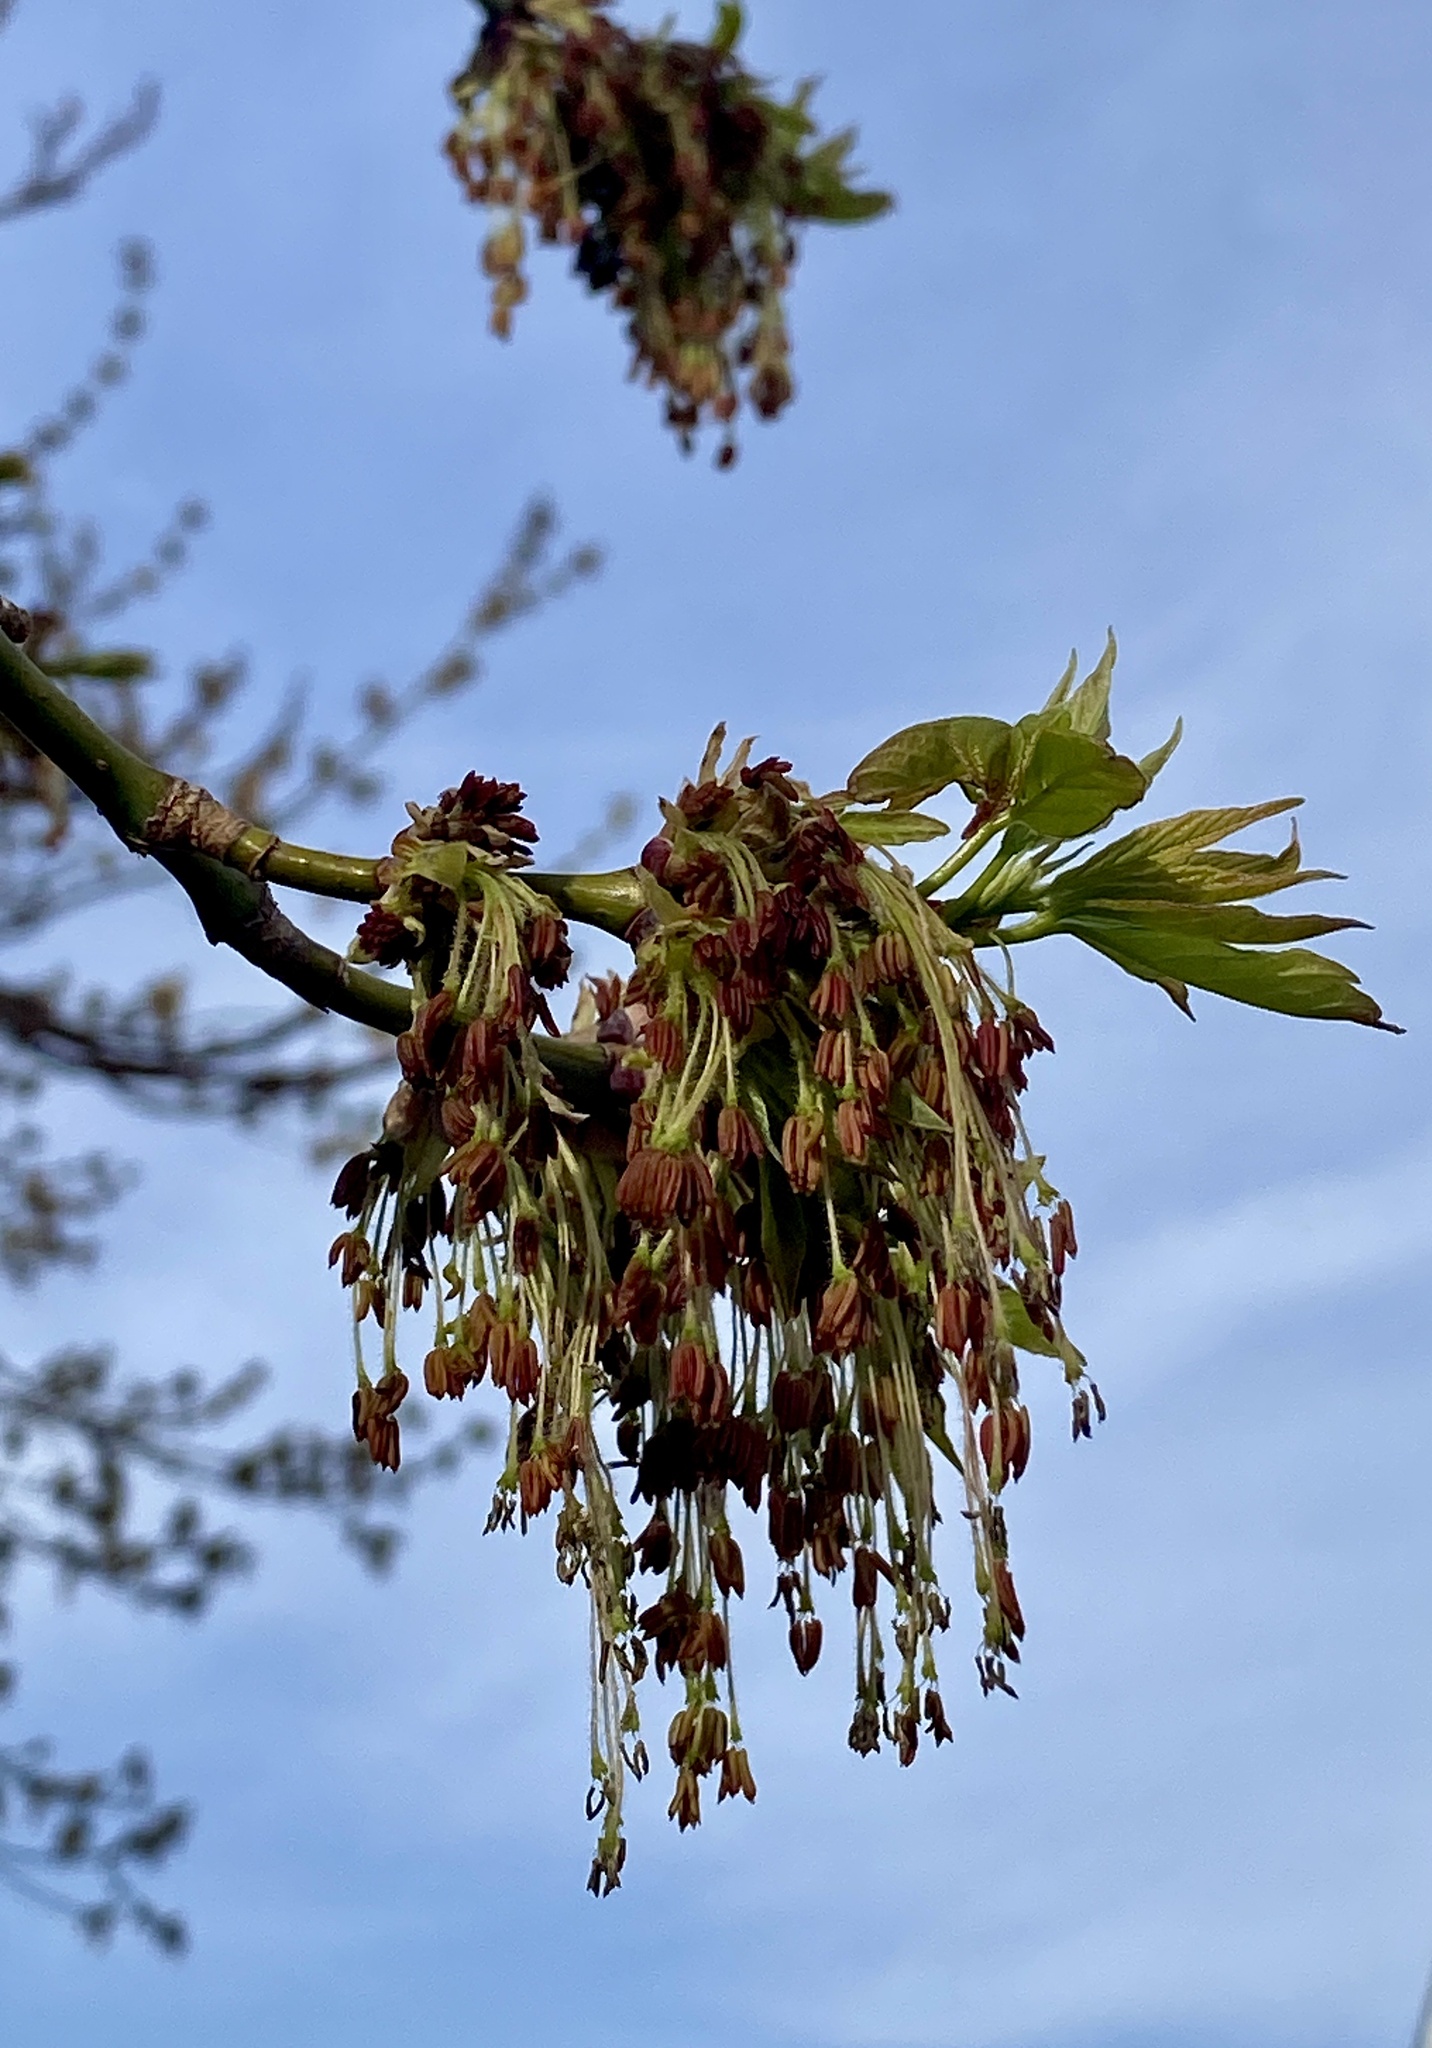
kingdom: Plantae
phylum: Tracheophyta
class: Magnoliopsida
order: Sapindales
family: Sapindaceae
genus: Acer
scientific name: Acer negundo
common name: Ashleaf maple
